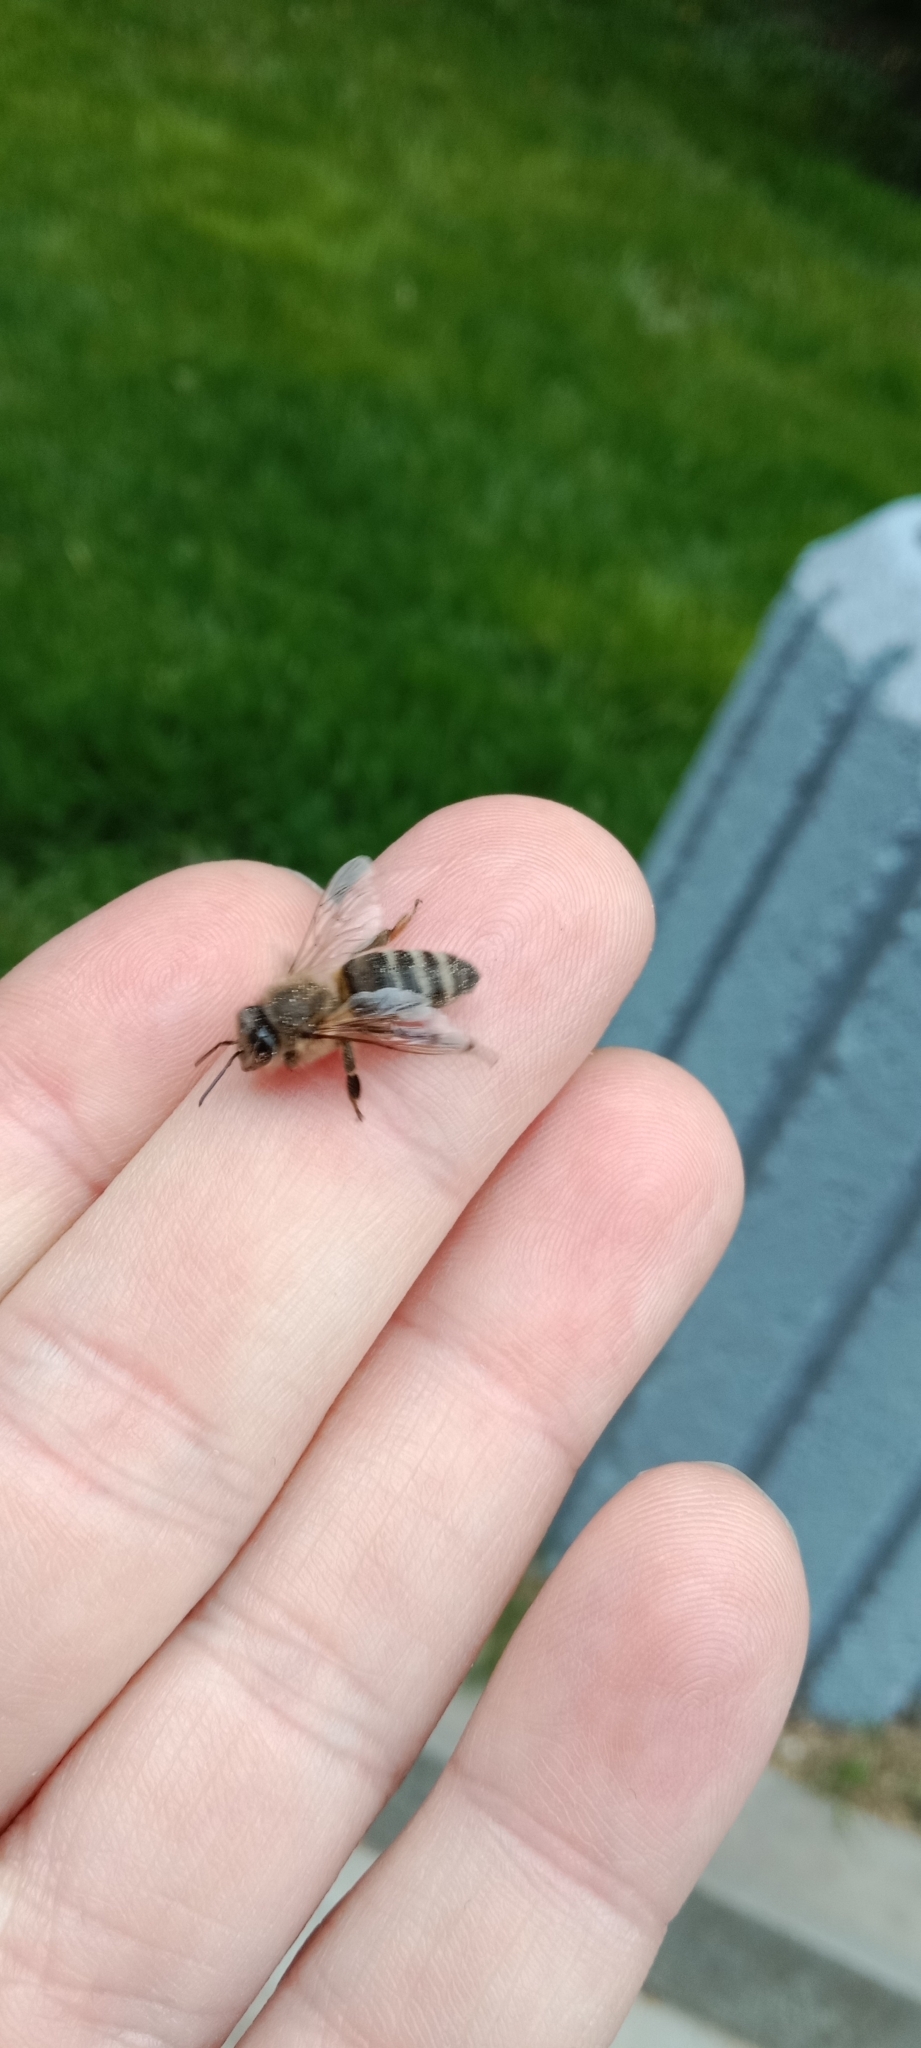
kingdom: Animalia
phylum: Arthropoda
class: Insecta
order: Hymenoptera
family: Apidae
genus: Apis
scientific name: Apis mellifera
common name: Honey bee
